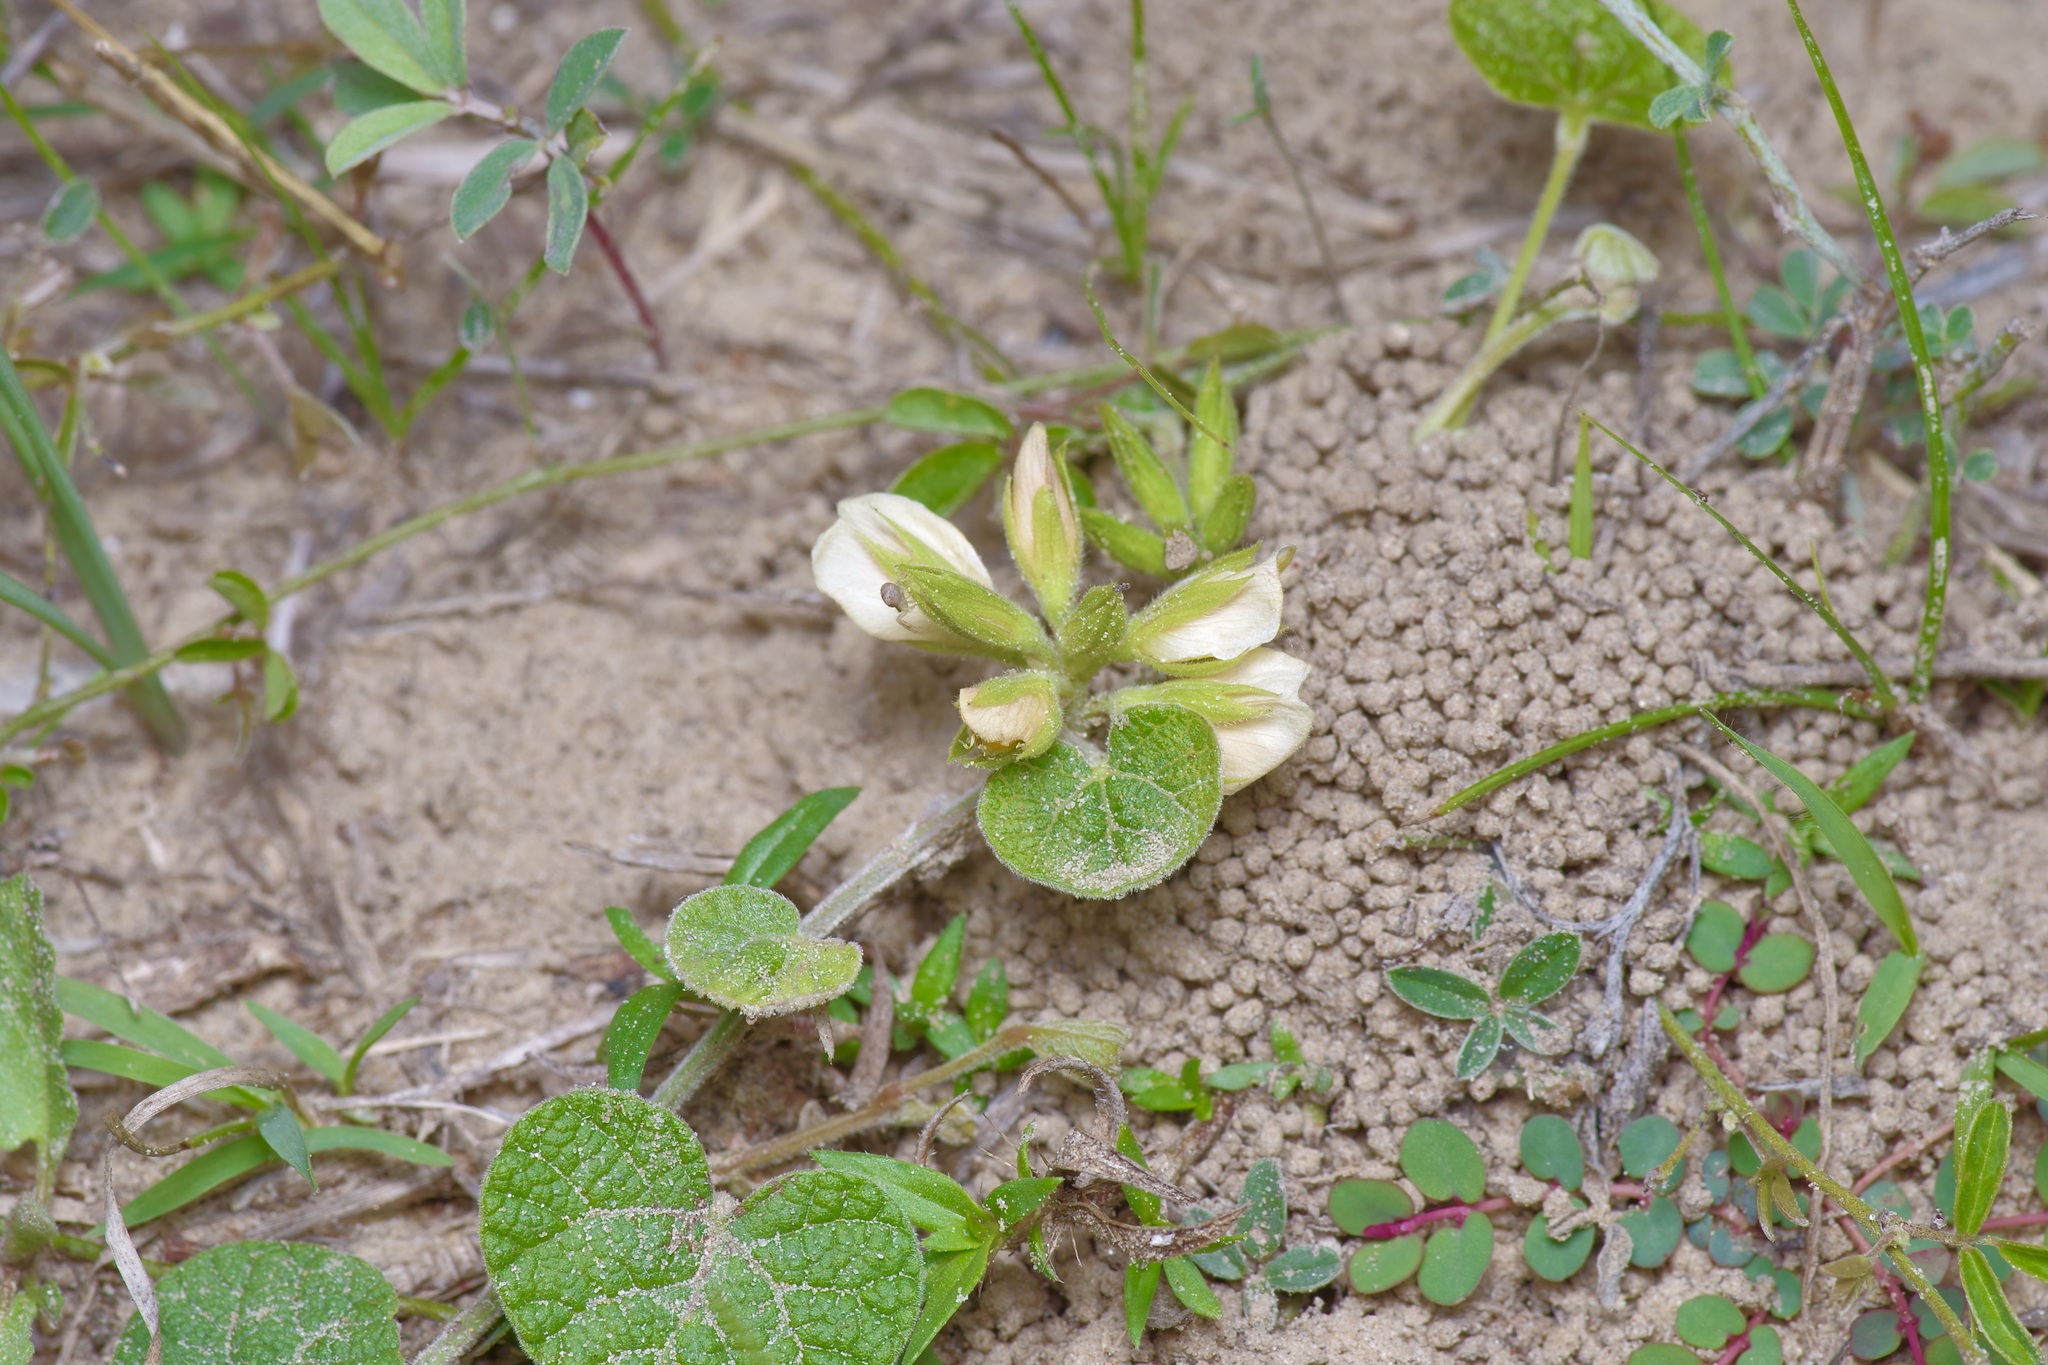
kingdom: Plantae
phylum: Tracheophyta
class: Magnoliopsida
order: Fabales
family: Fabaceae
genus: Rhynchosia
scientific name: Rhynchosia americana
